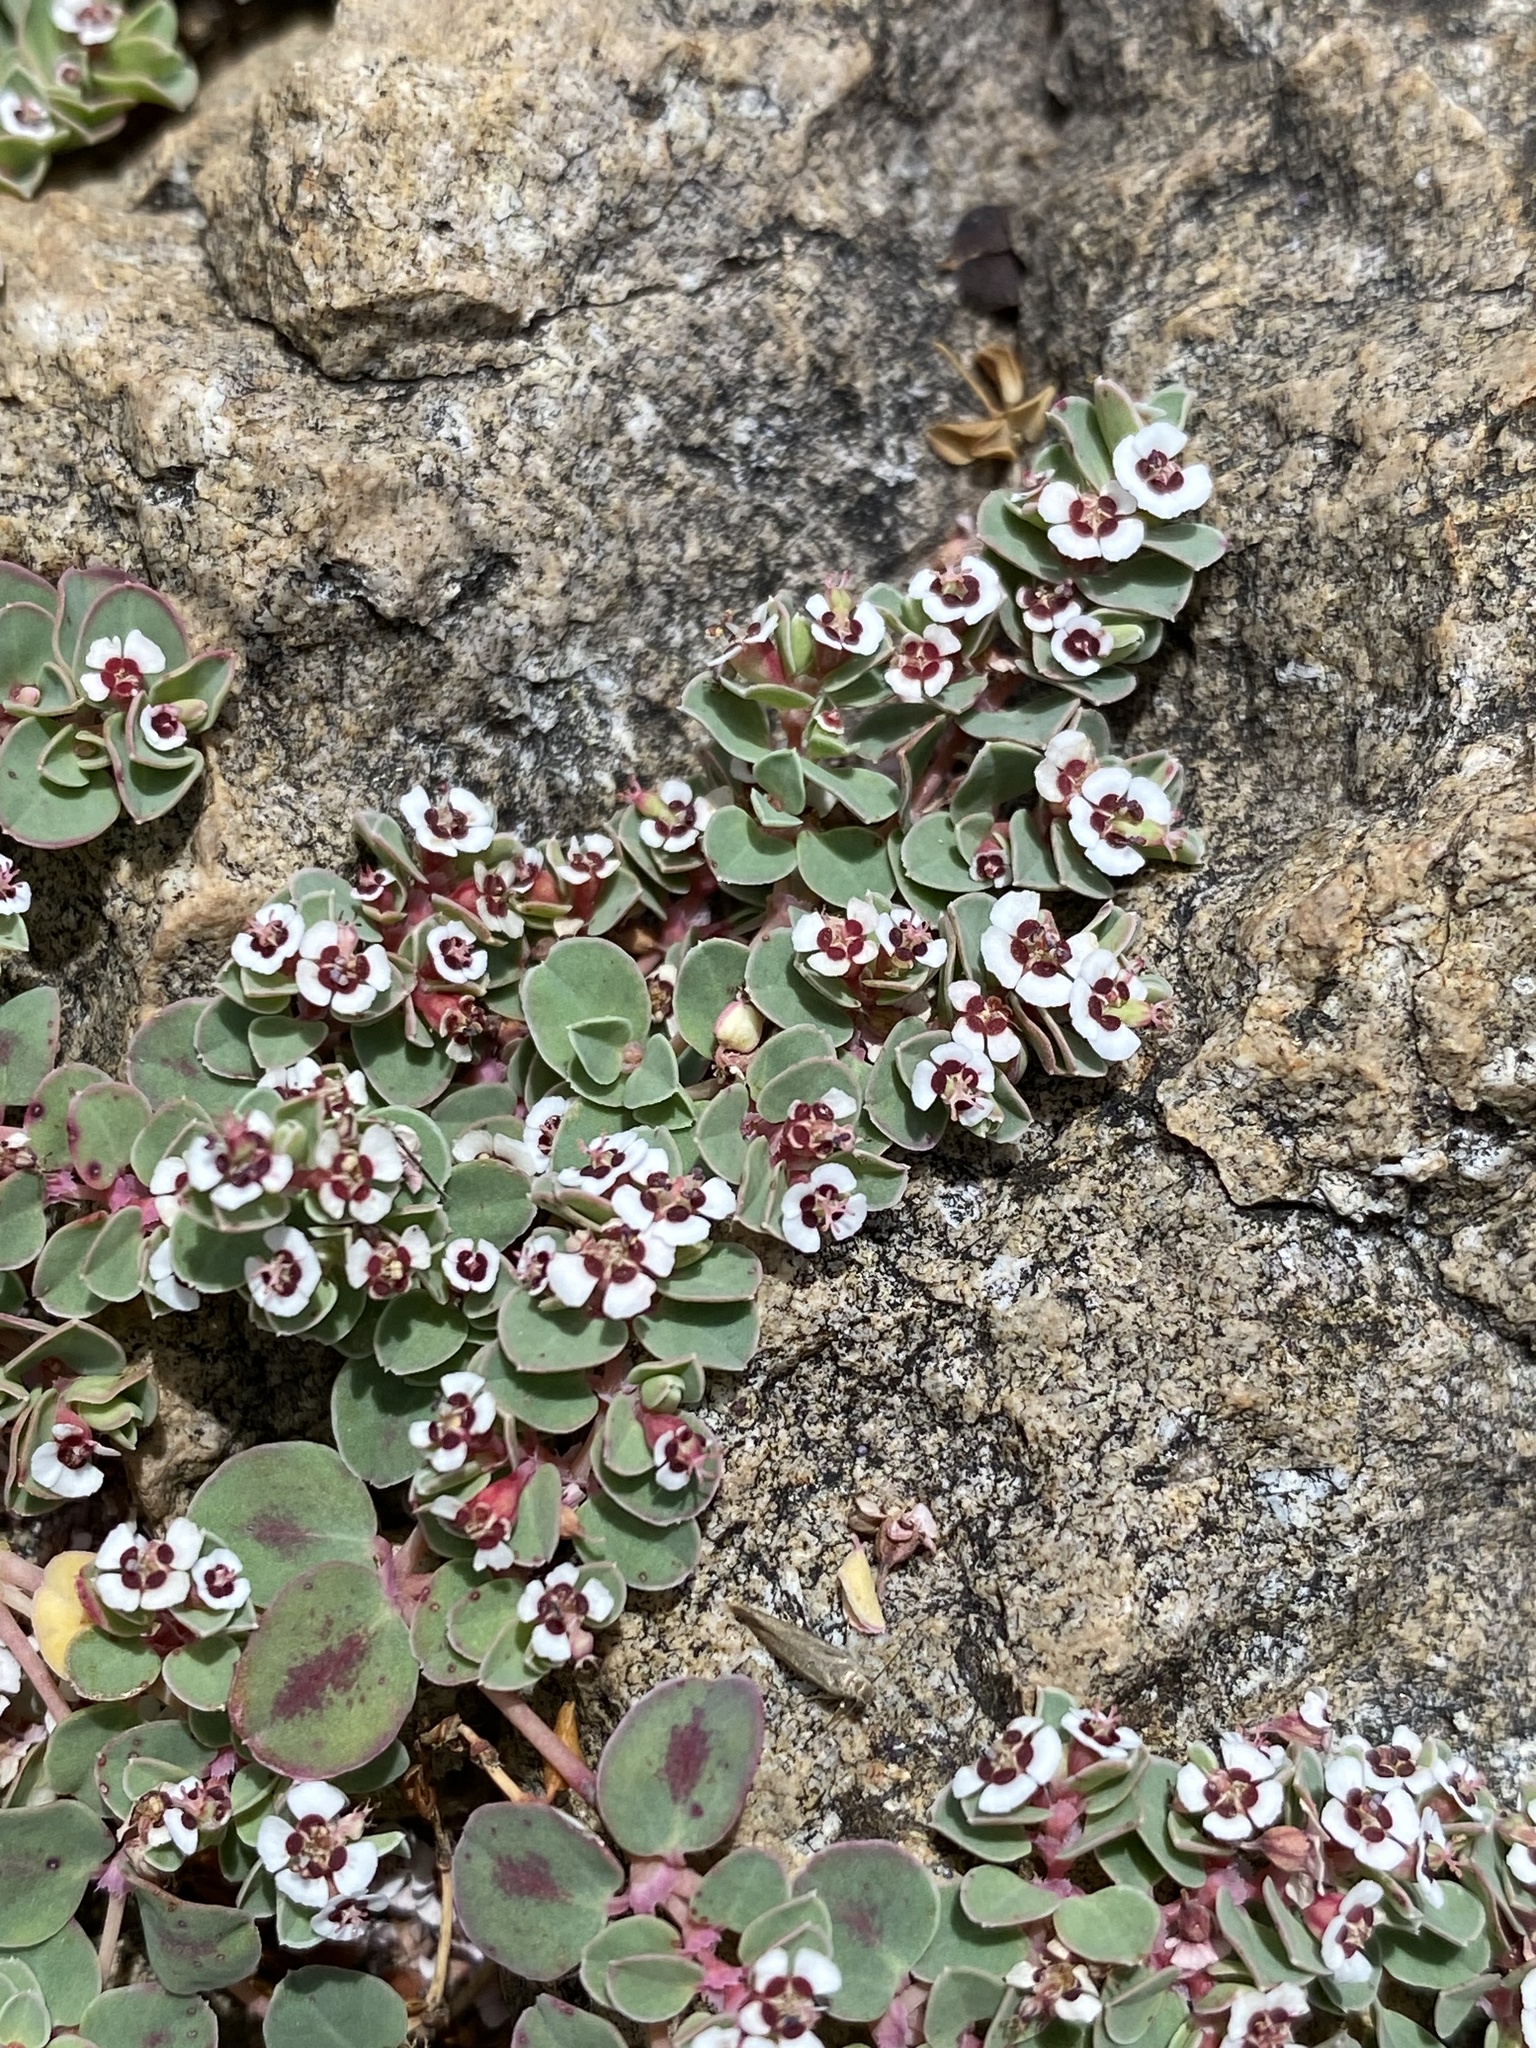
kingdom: Plantae
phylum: Tracheophyta
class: Magnoliopsida
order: Malpighiales
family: Euphorbiaceae
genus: Euphorbia
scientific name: Euphorbia albomarginata
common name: Whitemargin sandmat
